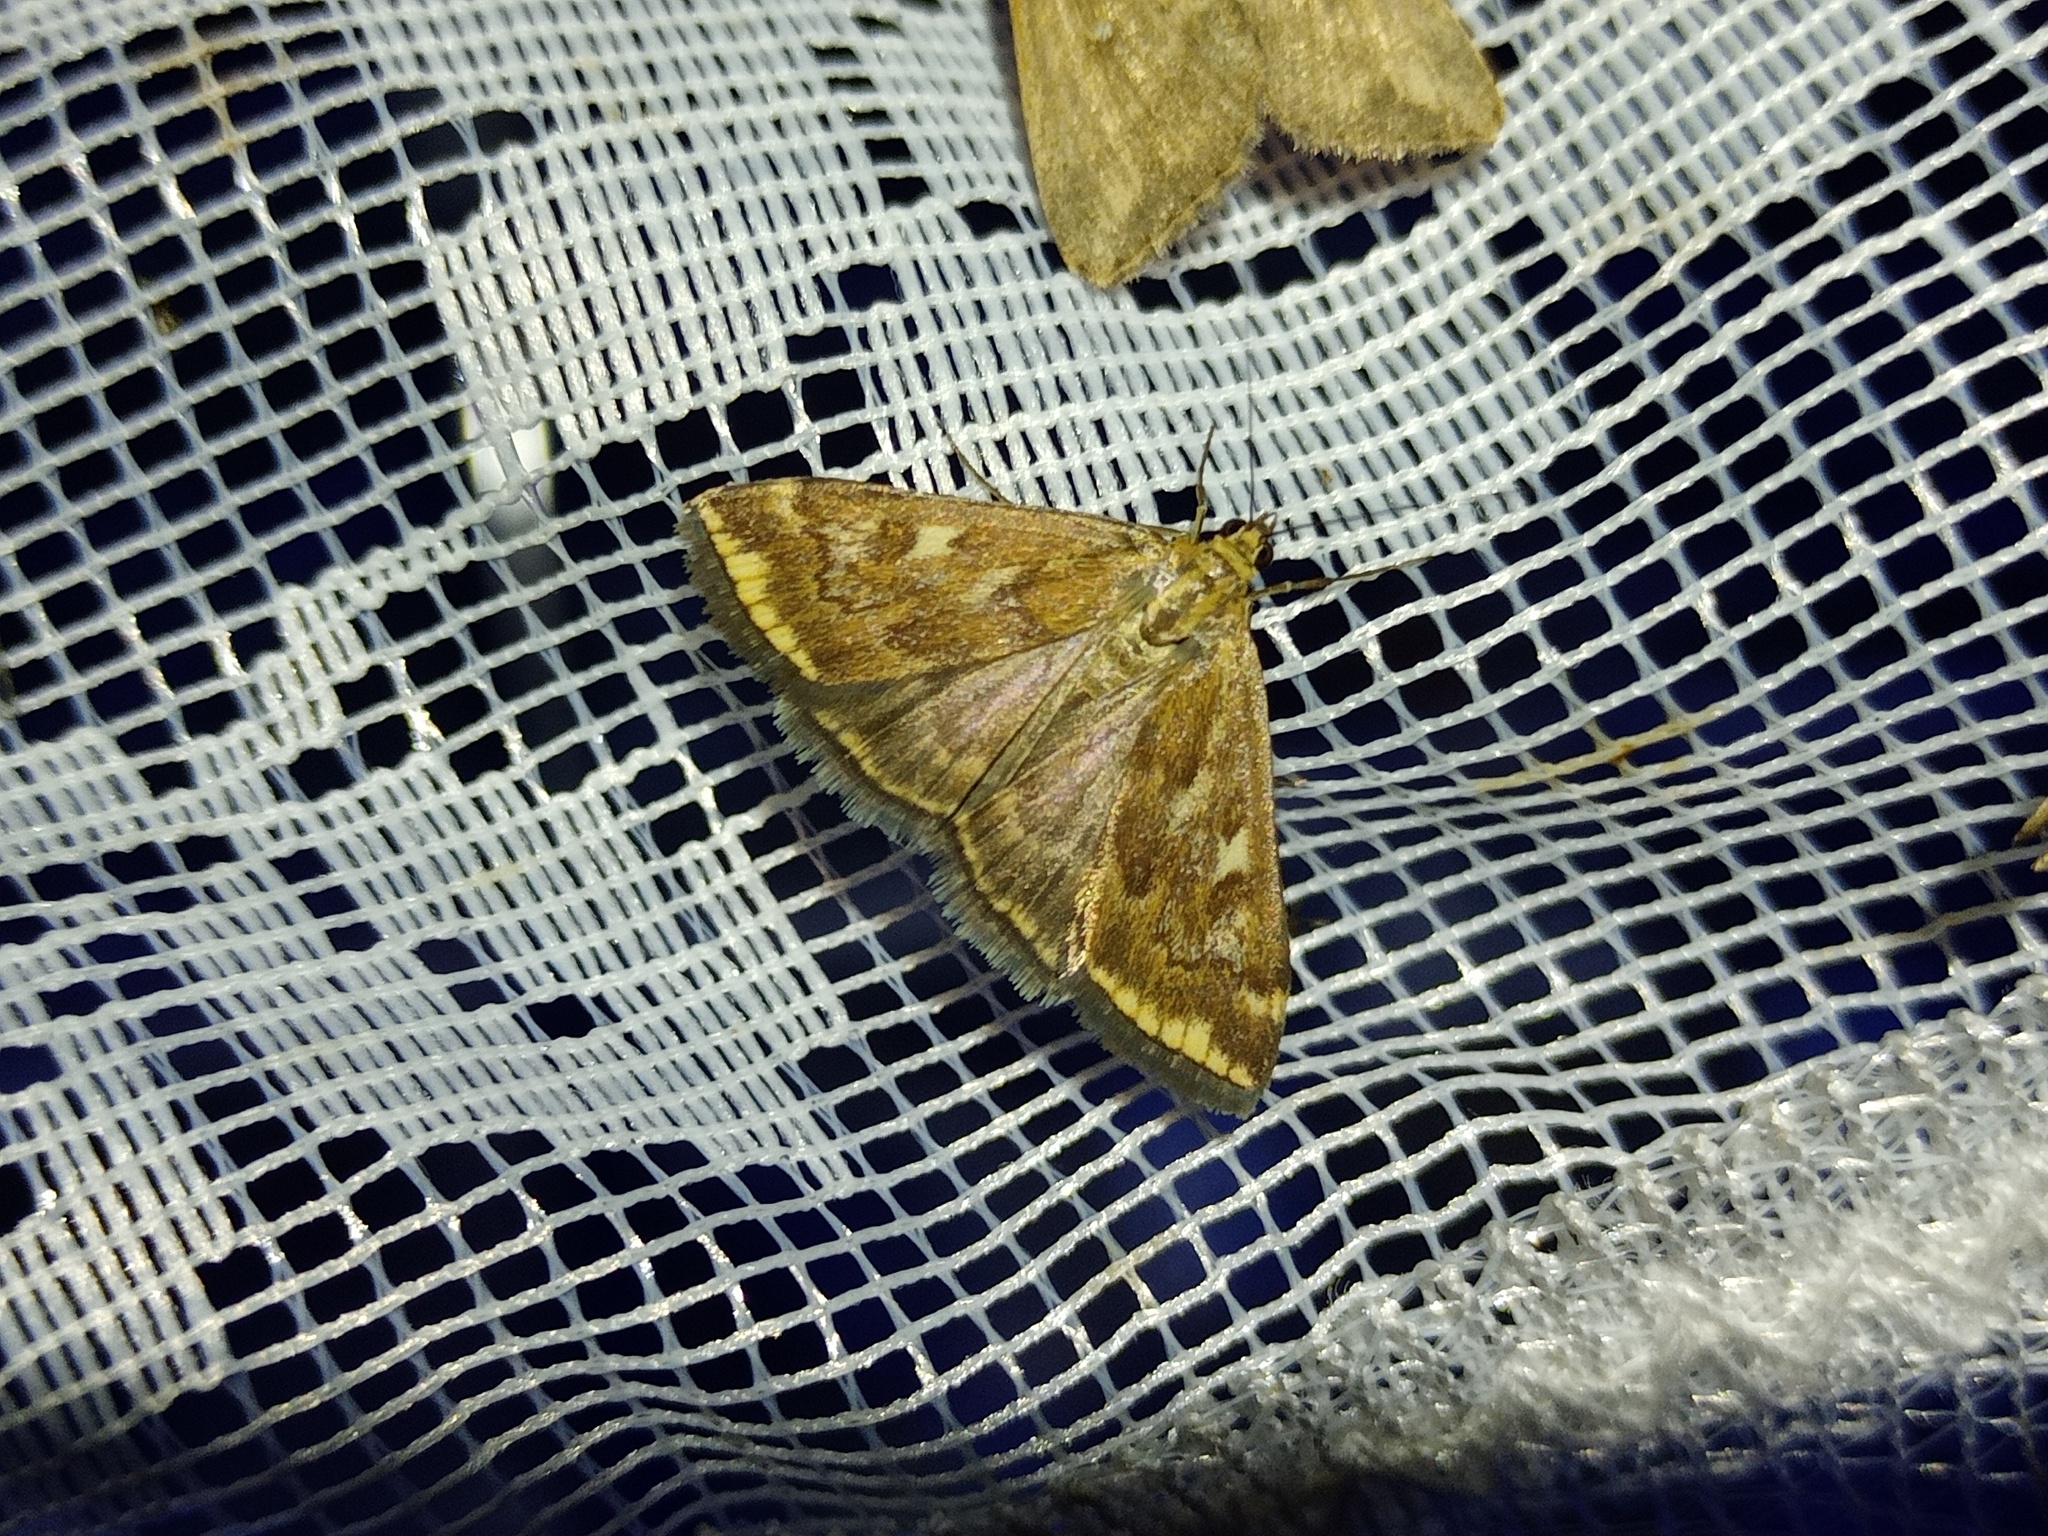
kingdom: Animalia
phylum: Arthropoda
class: Insecta
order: Lepidoptera
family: Crambidae
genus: Loxostege
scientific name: Loxostege sticticalis
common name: Crambid moth
